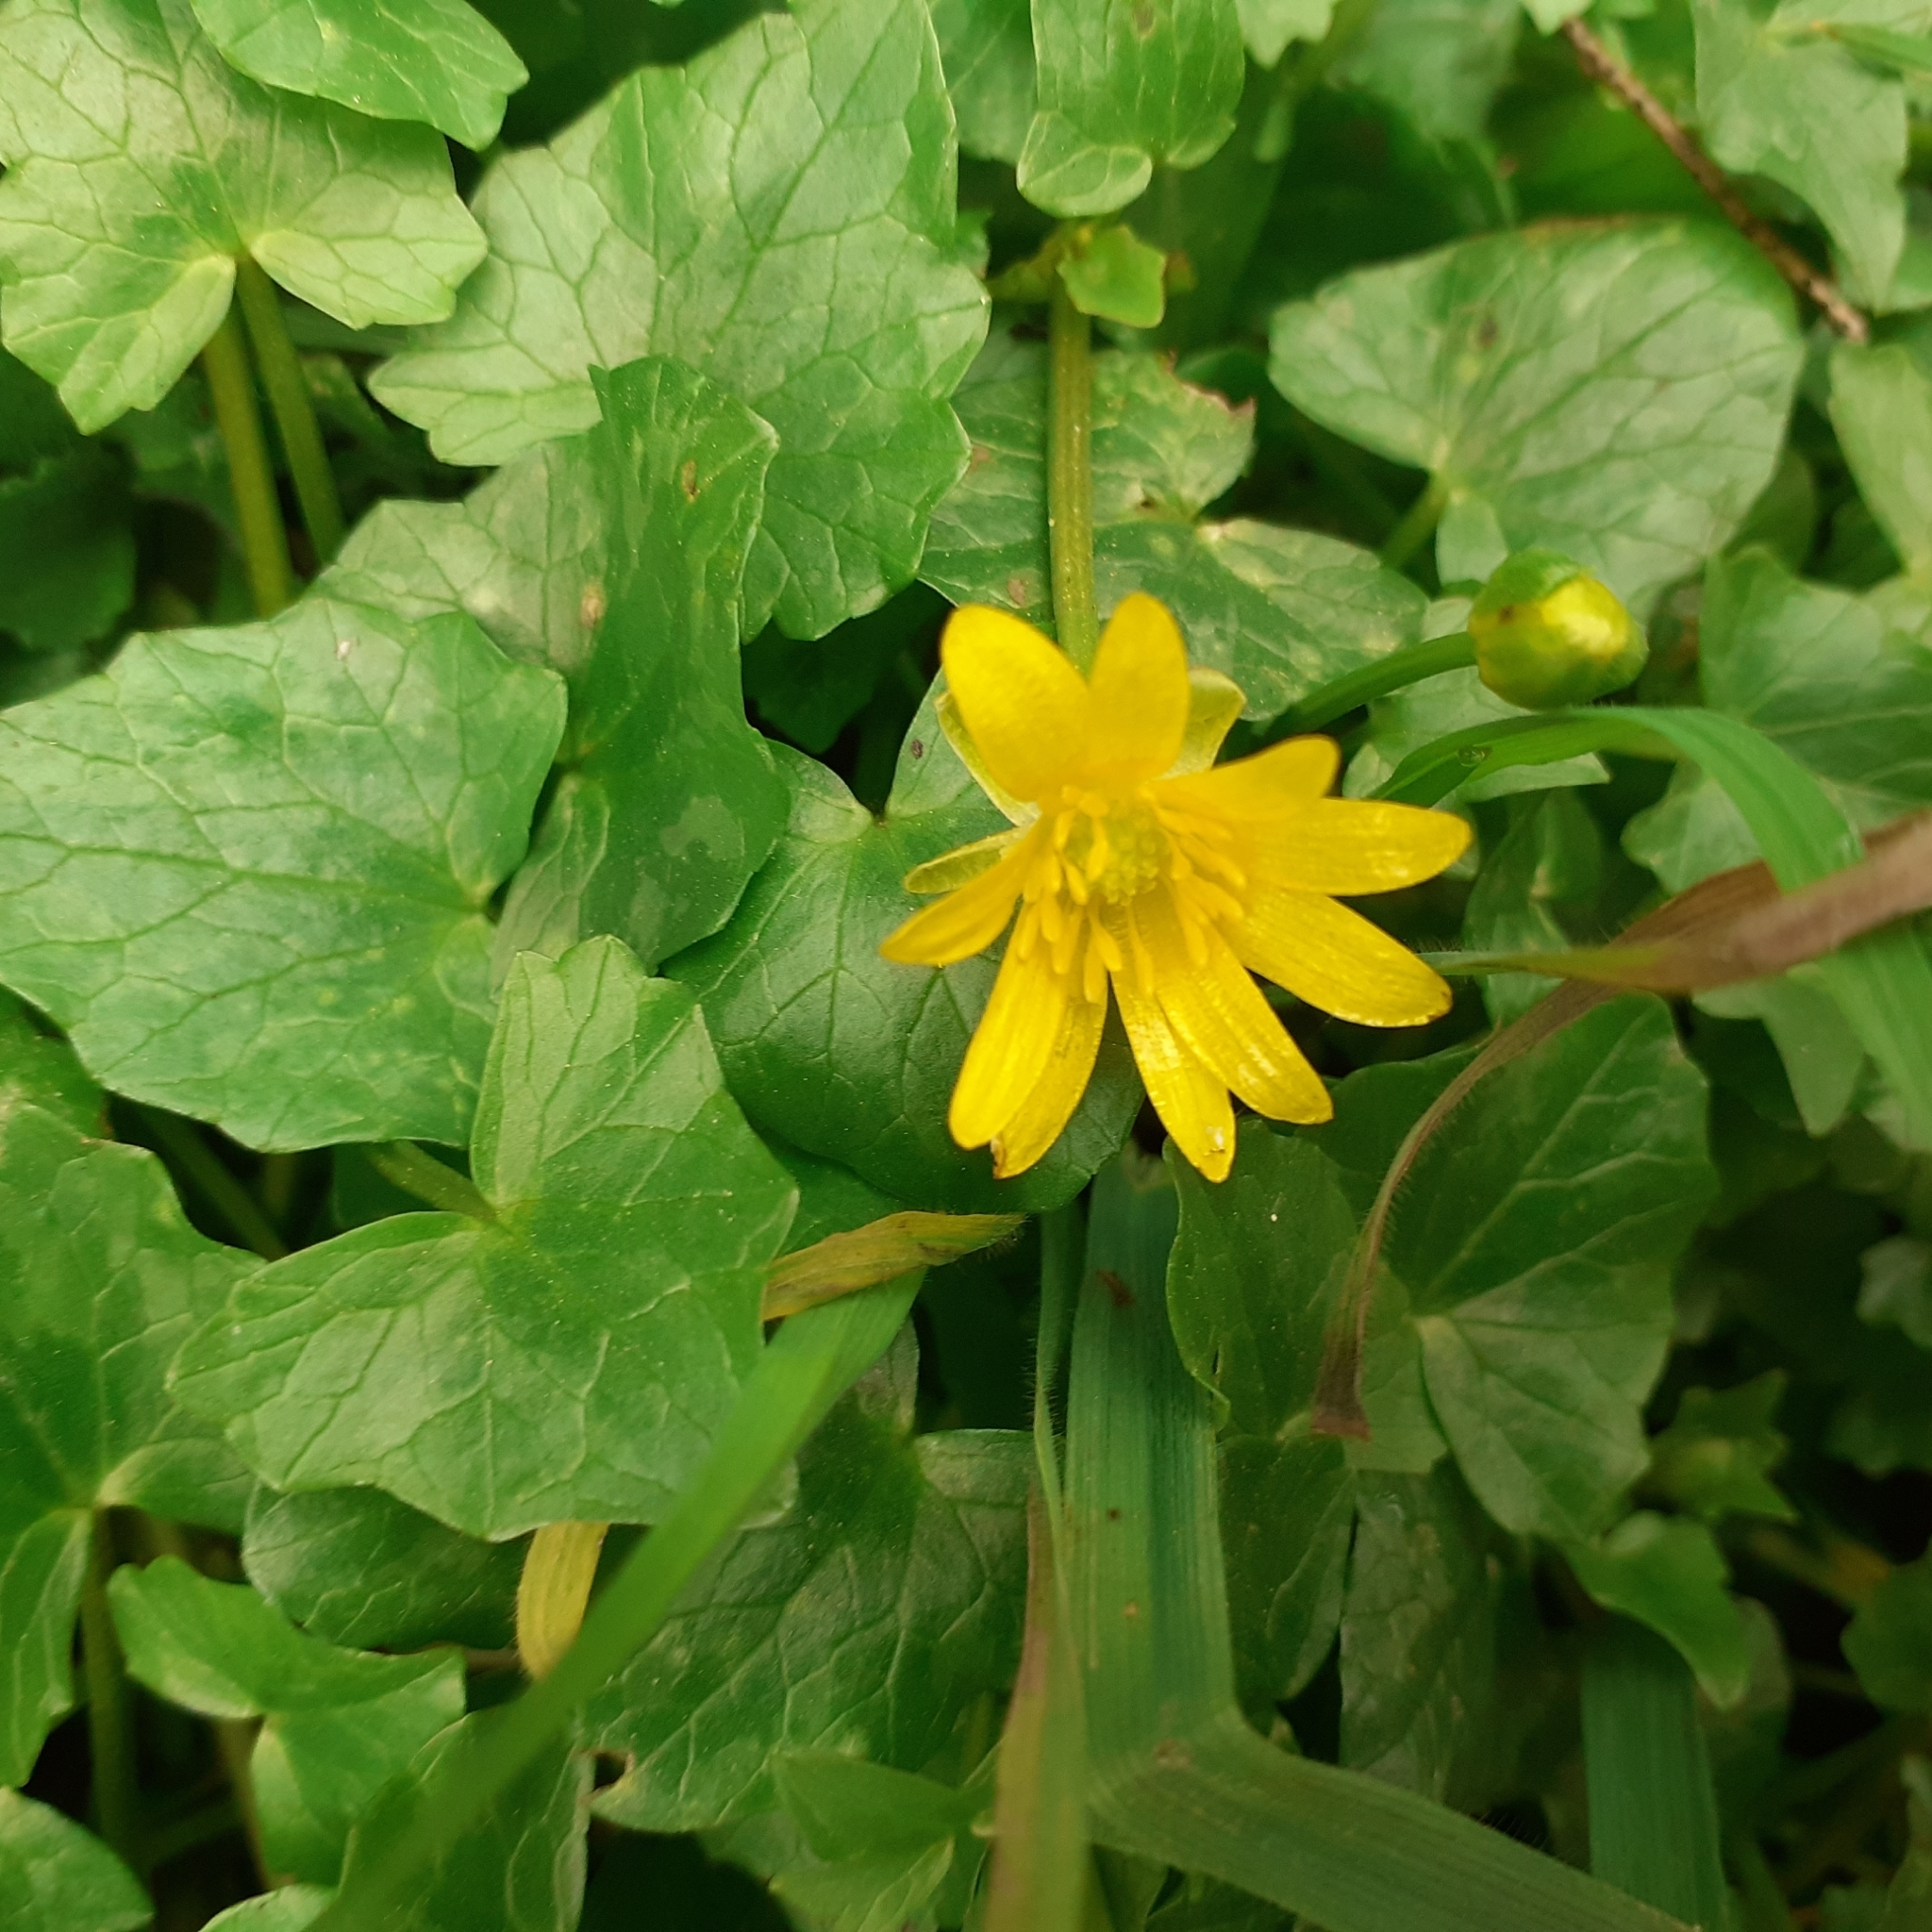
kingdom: Plantae
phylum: Tracheophyta
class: Magnoliopsida
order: Ranunculales
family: Ranunculaceae
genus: Ficaria
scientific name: Ficaria verna
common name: Lesser celandine
